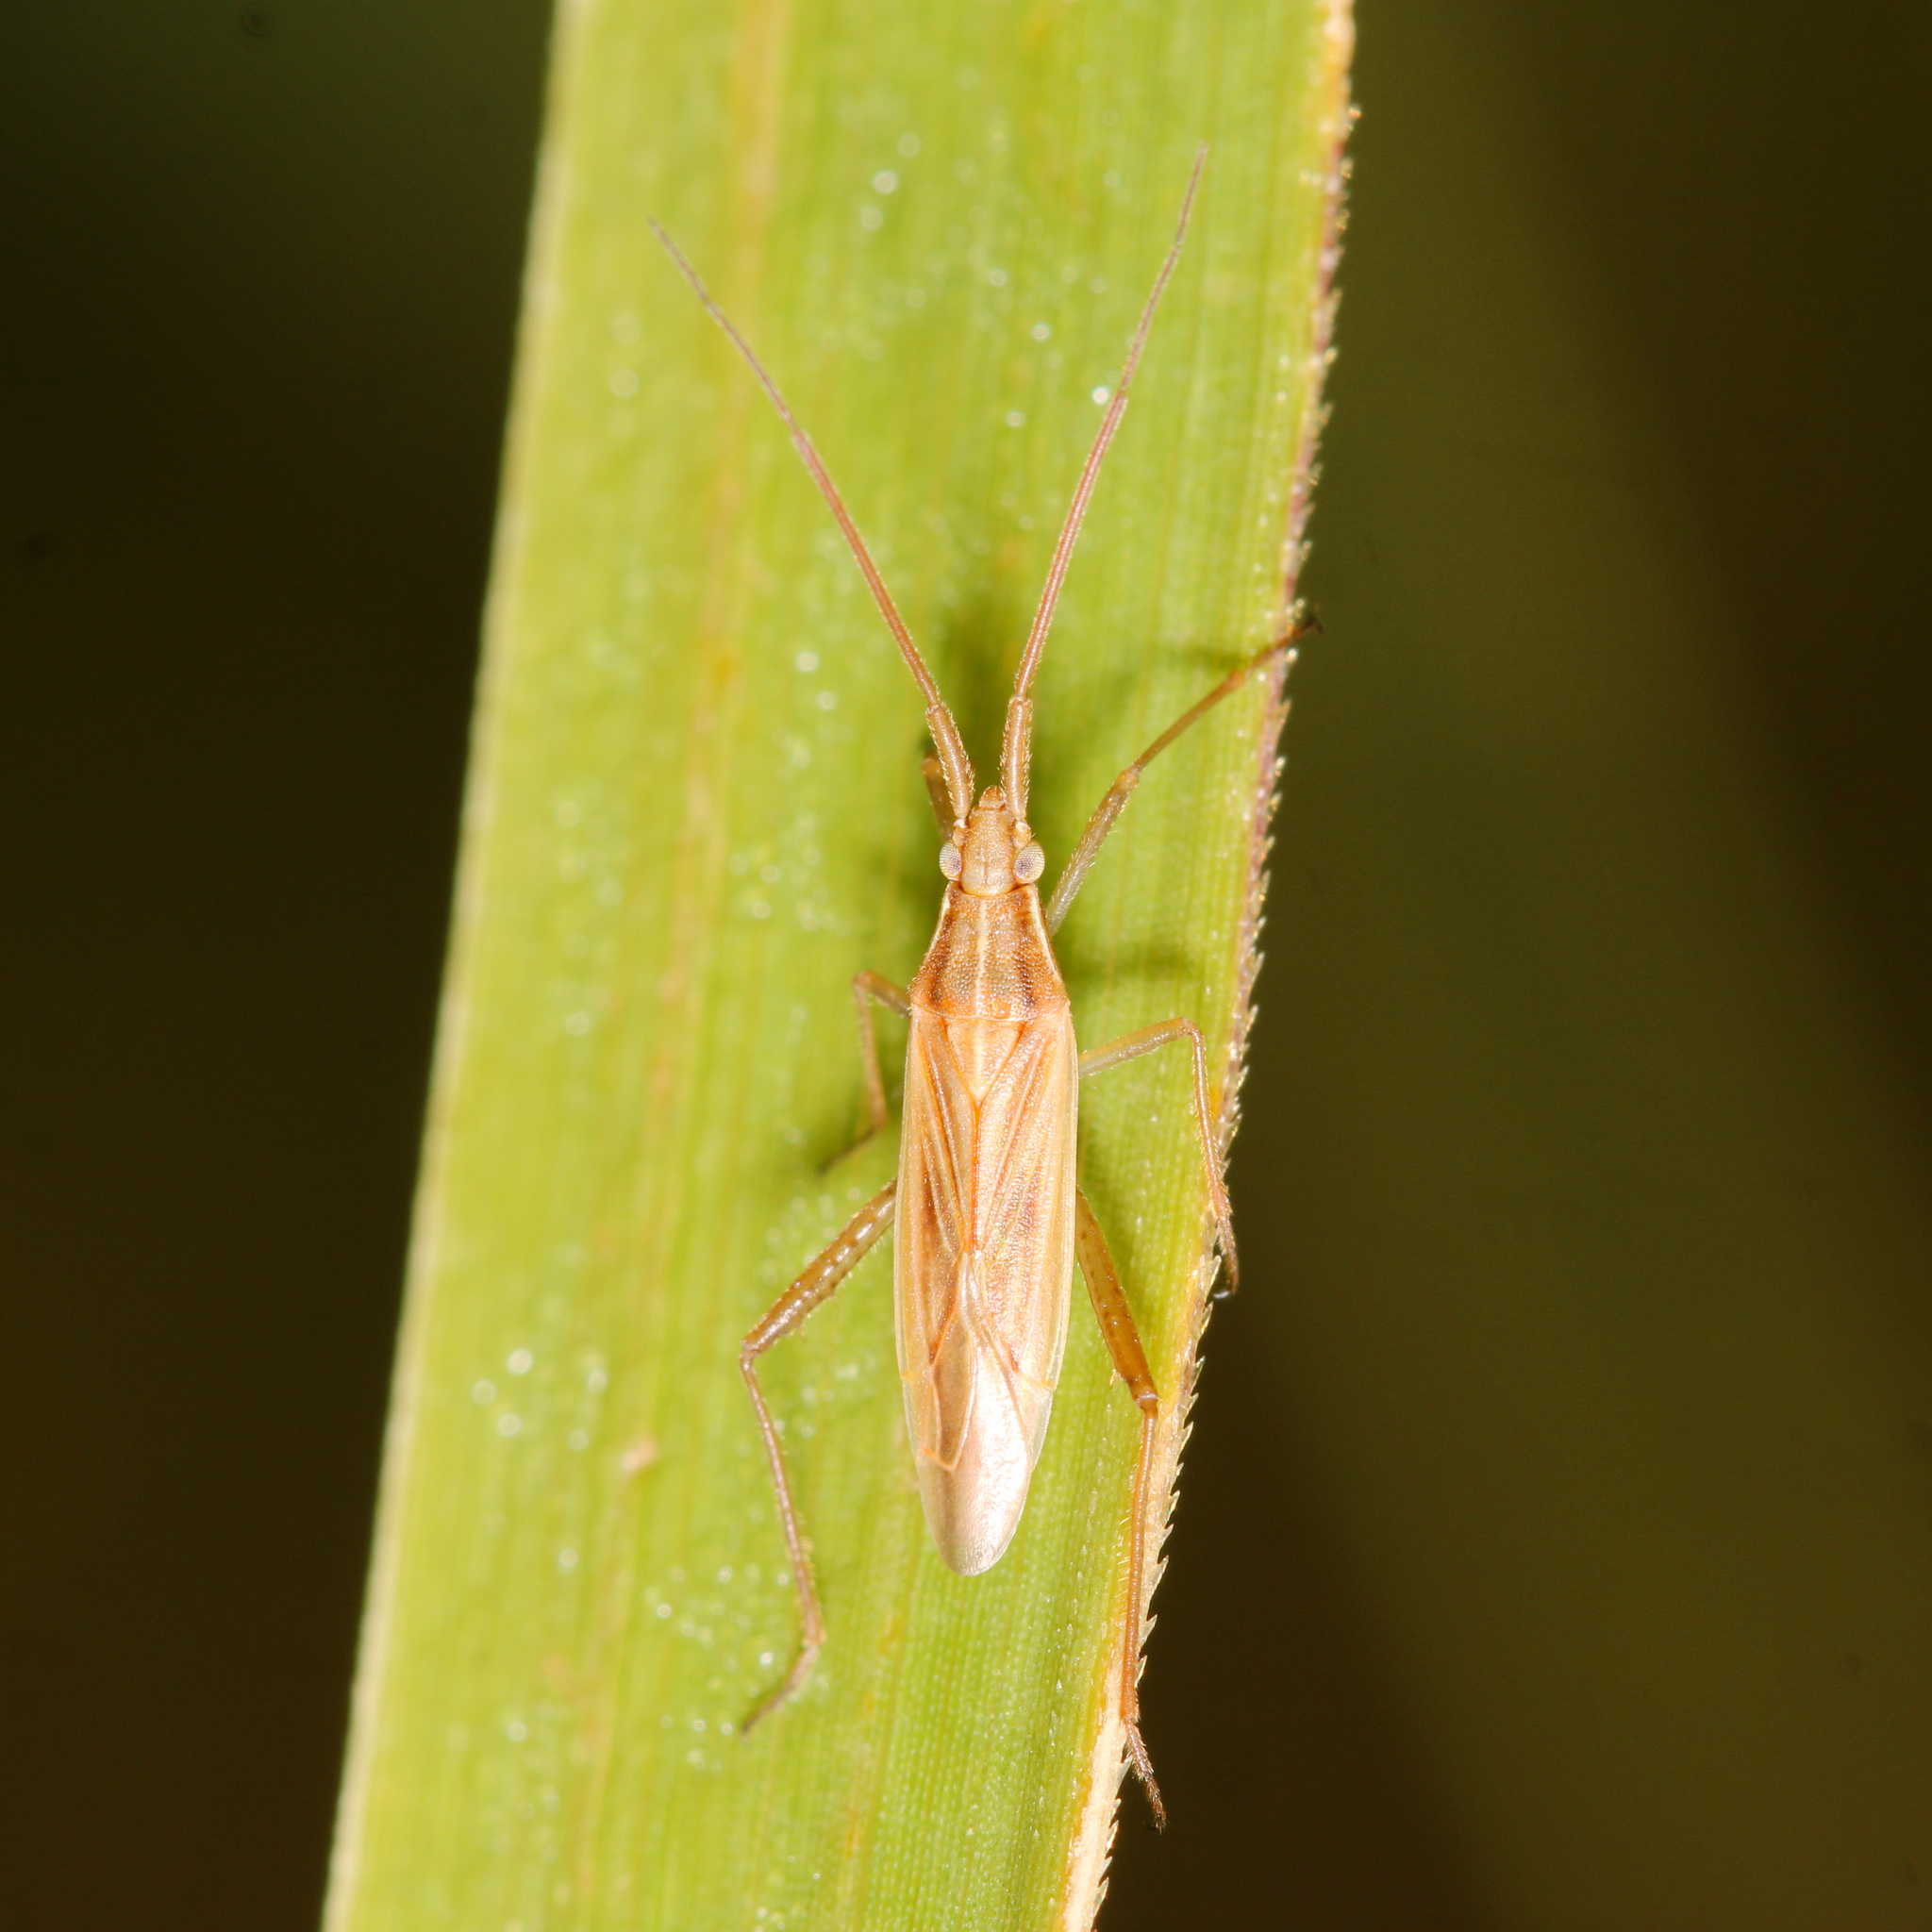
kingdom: Animalia
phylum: Arthropoda
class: Insecta
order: Hemiptera
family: Miridae
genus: Stenodema
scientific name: Stenodema trispinosa
